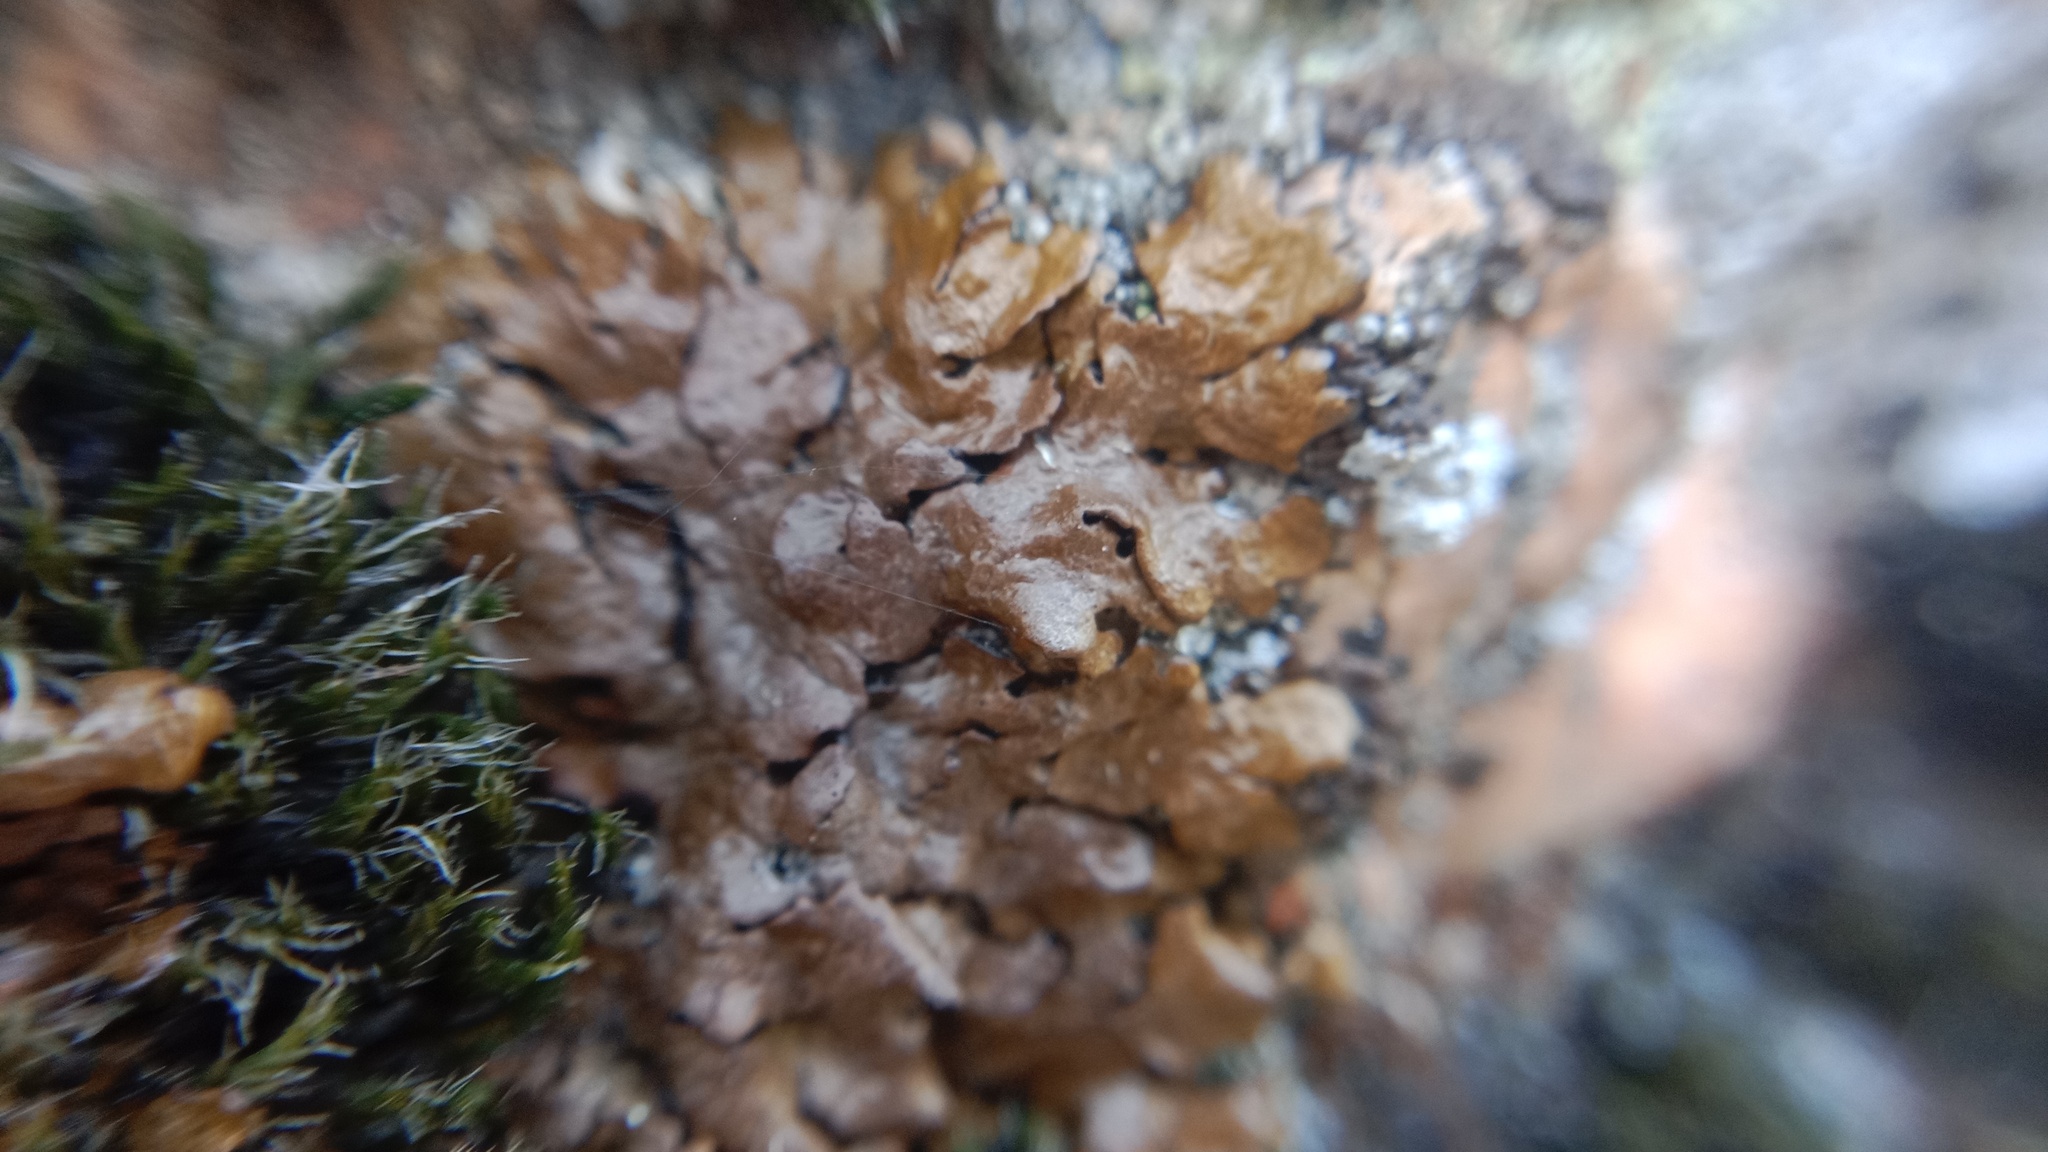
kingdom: Fungi
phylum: Ascomycota
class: Lecanoromycetes
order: Lecanorales
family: Parmeliaceae
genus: Xanthoparmelia
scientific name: Xanthoparmelia pulla
